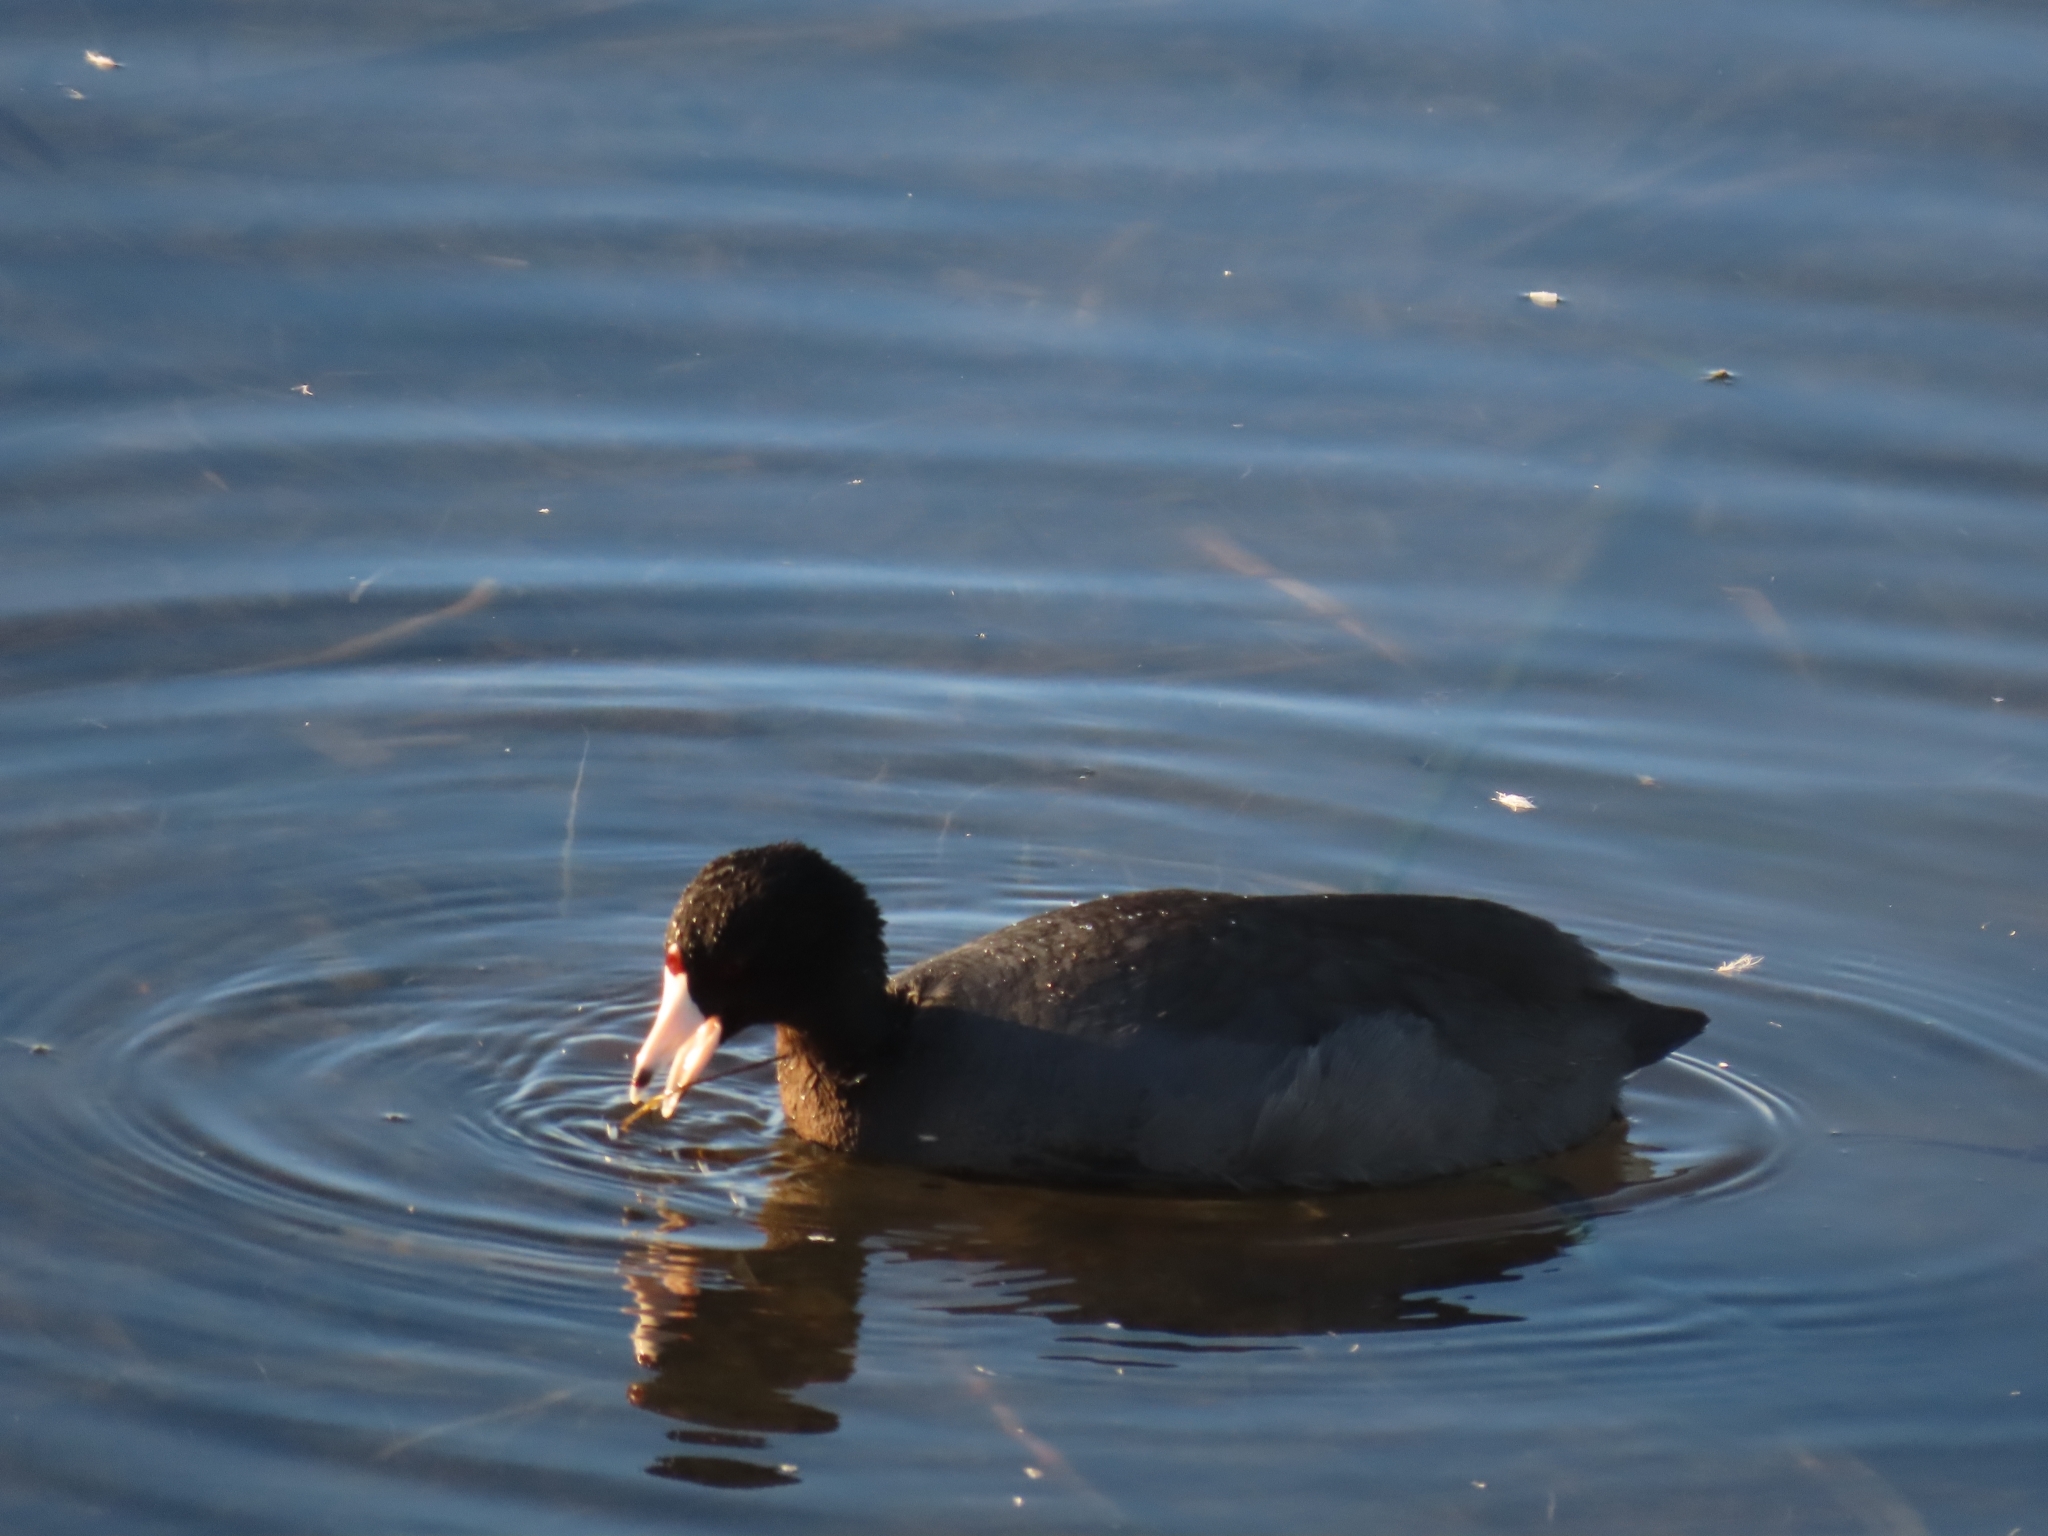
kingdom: Animalia
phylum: Chordata
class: Aves
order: Gruiformes
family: Rallidae
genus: Fulica
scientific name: Fulica americana
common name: American coot
